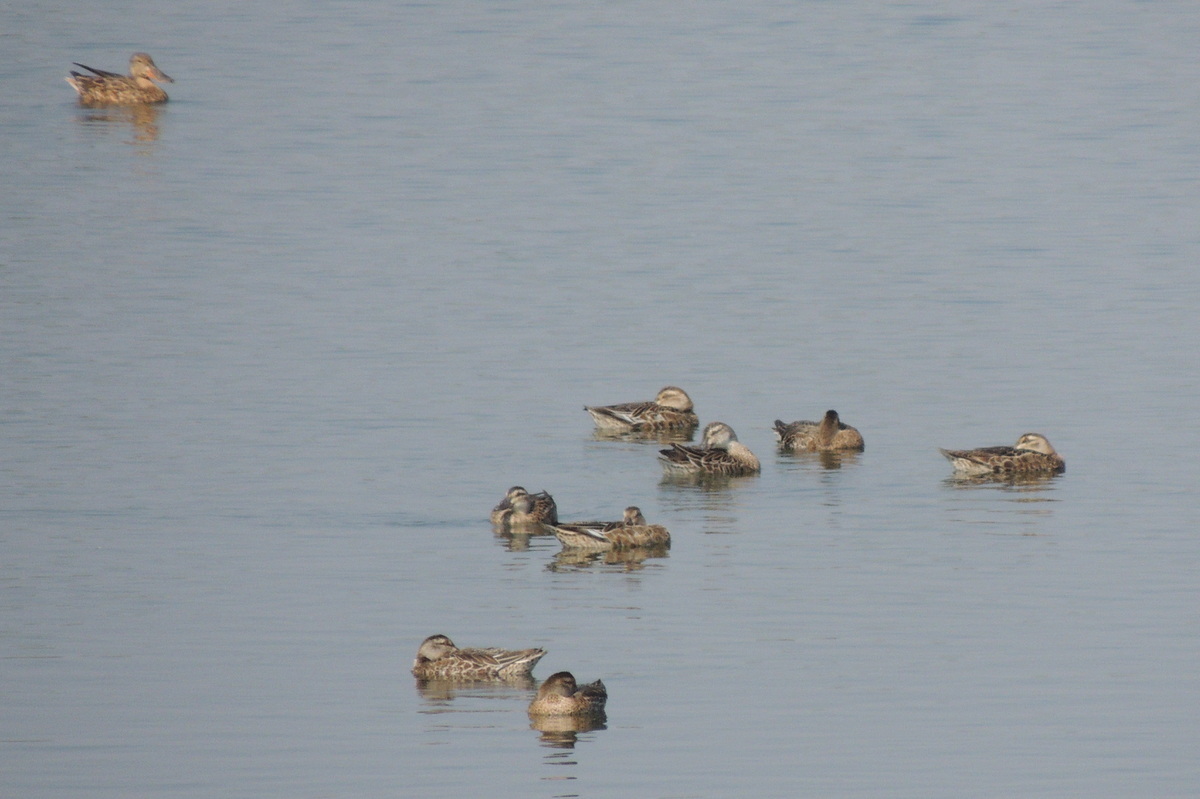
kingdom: Animalia
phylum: Chordata
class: Aves
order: Anseriformes
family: Anatidae
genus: Spatula
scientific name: Spatula querquedula
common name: Garganey
